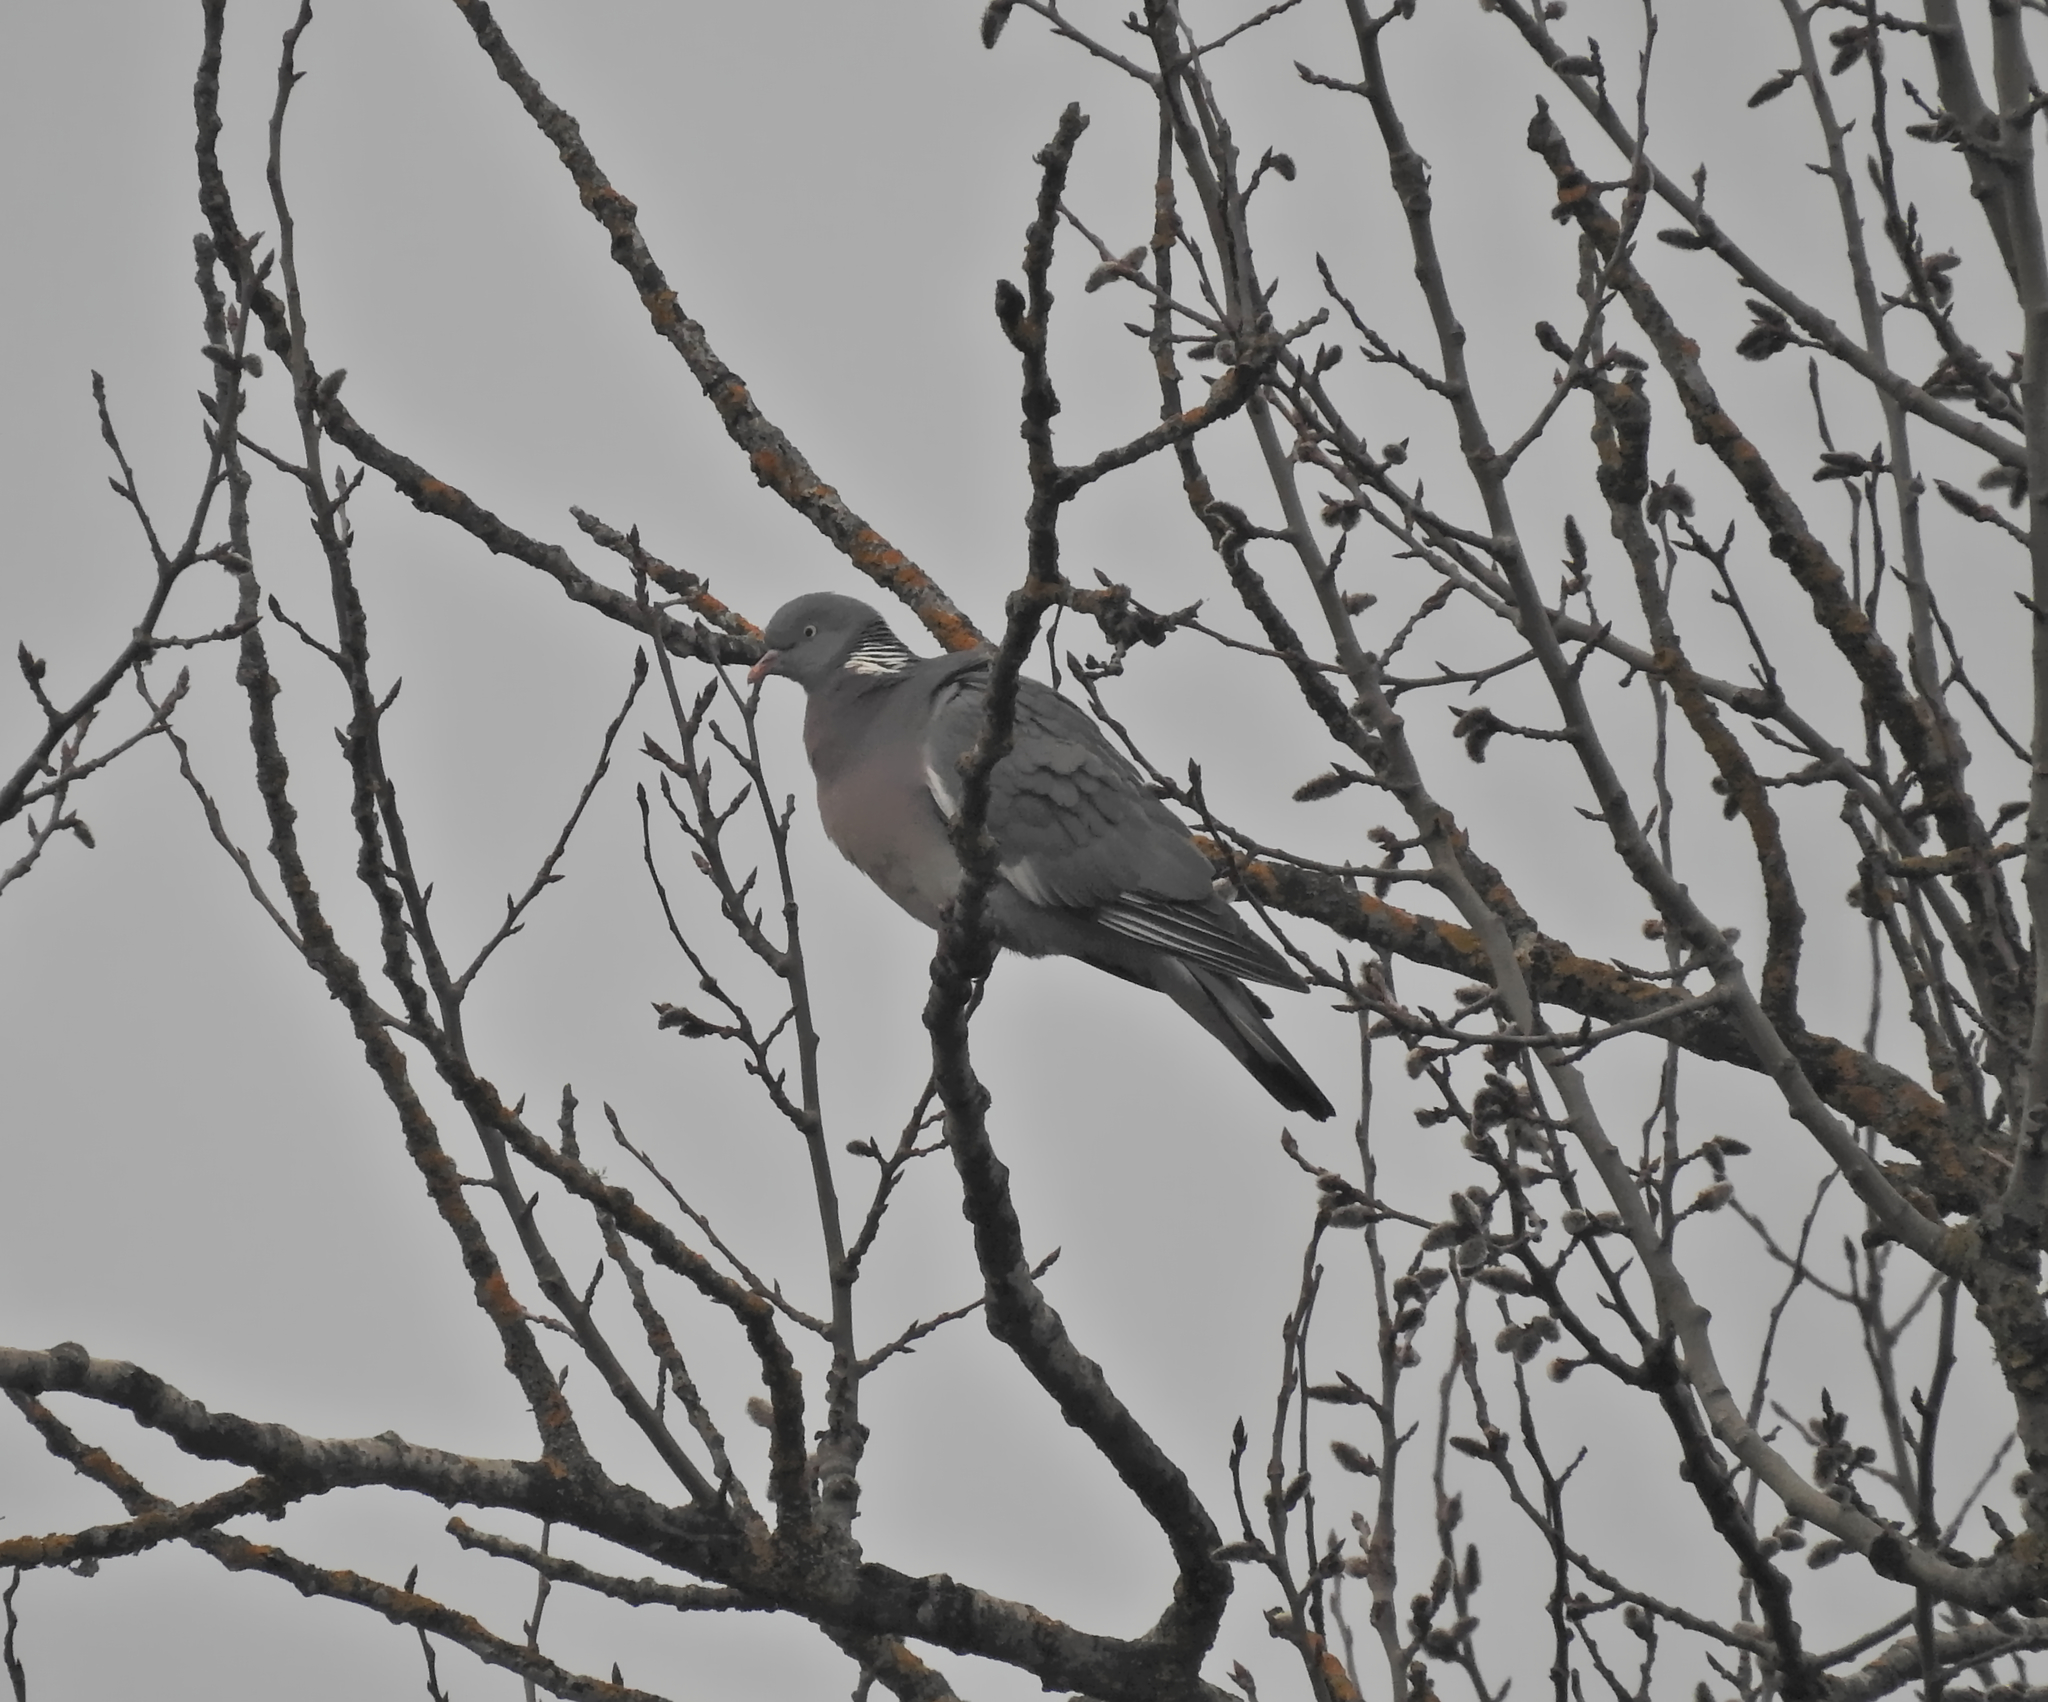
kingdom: Animalia
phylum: Chordata
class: Aves
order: Columbiformes
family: Columbidae
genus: Columba
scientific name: Columba palumbus
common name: Common wood pigeon
